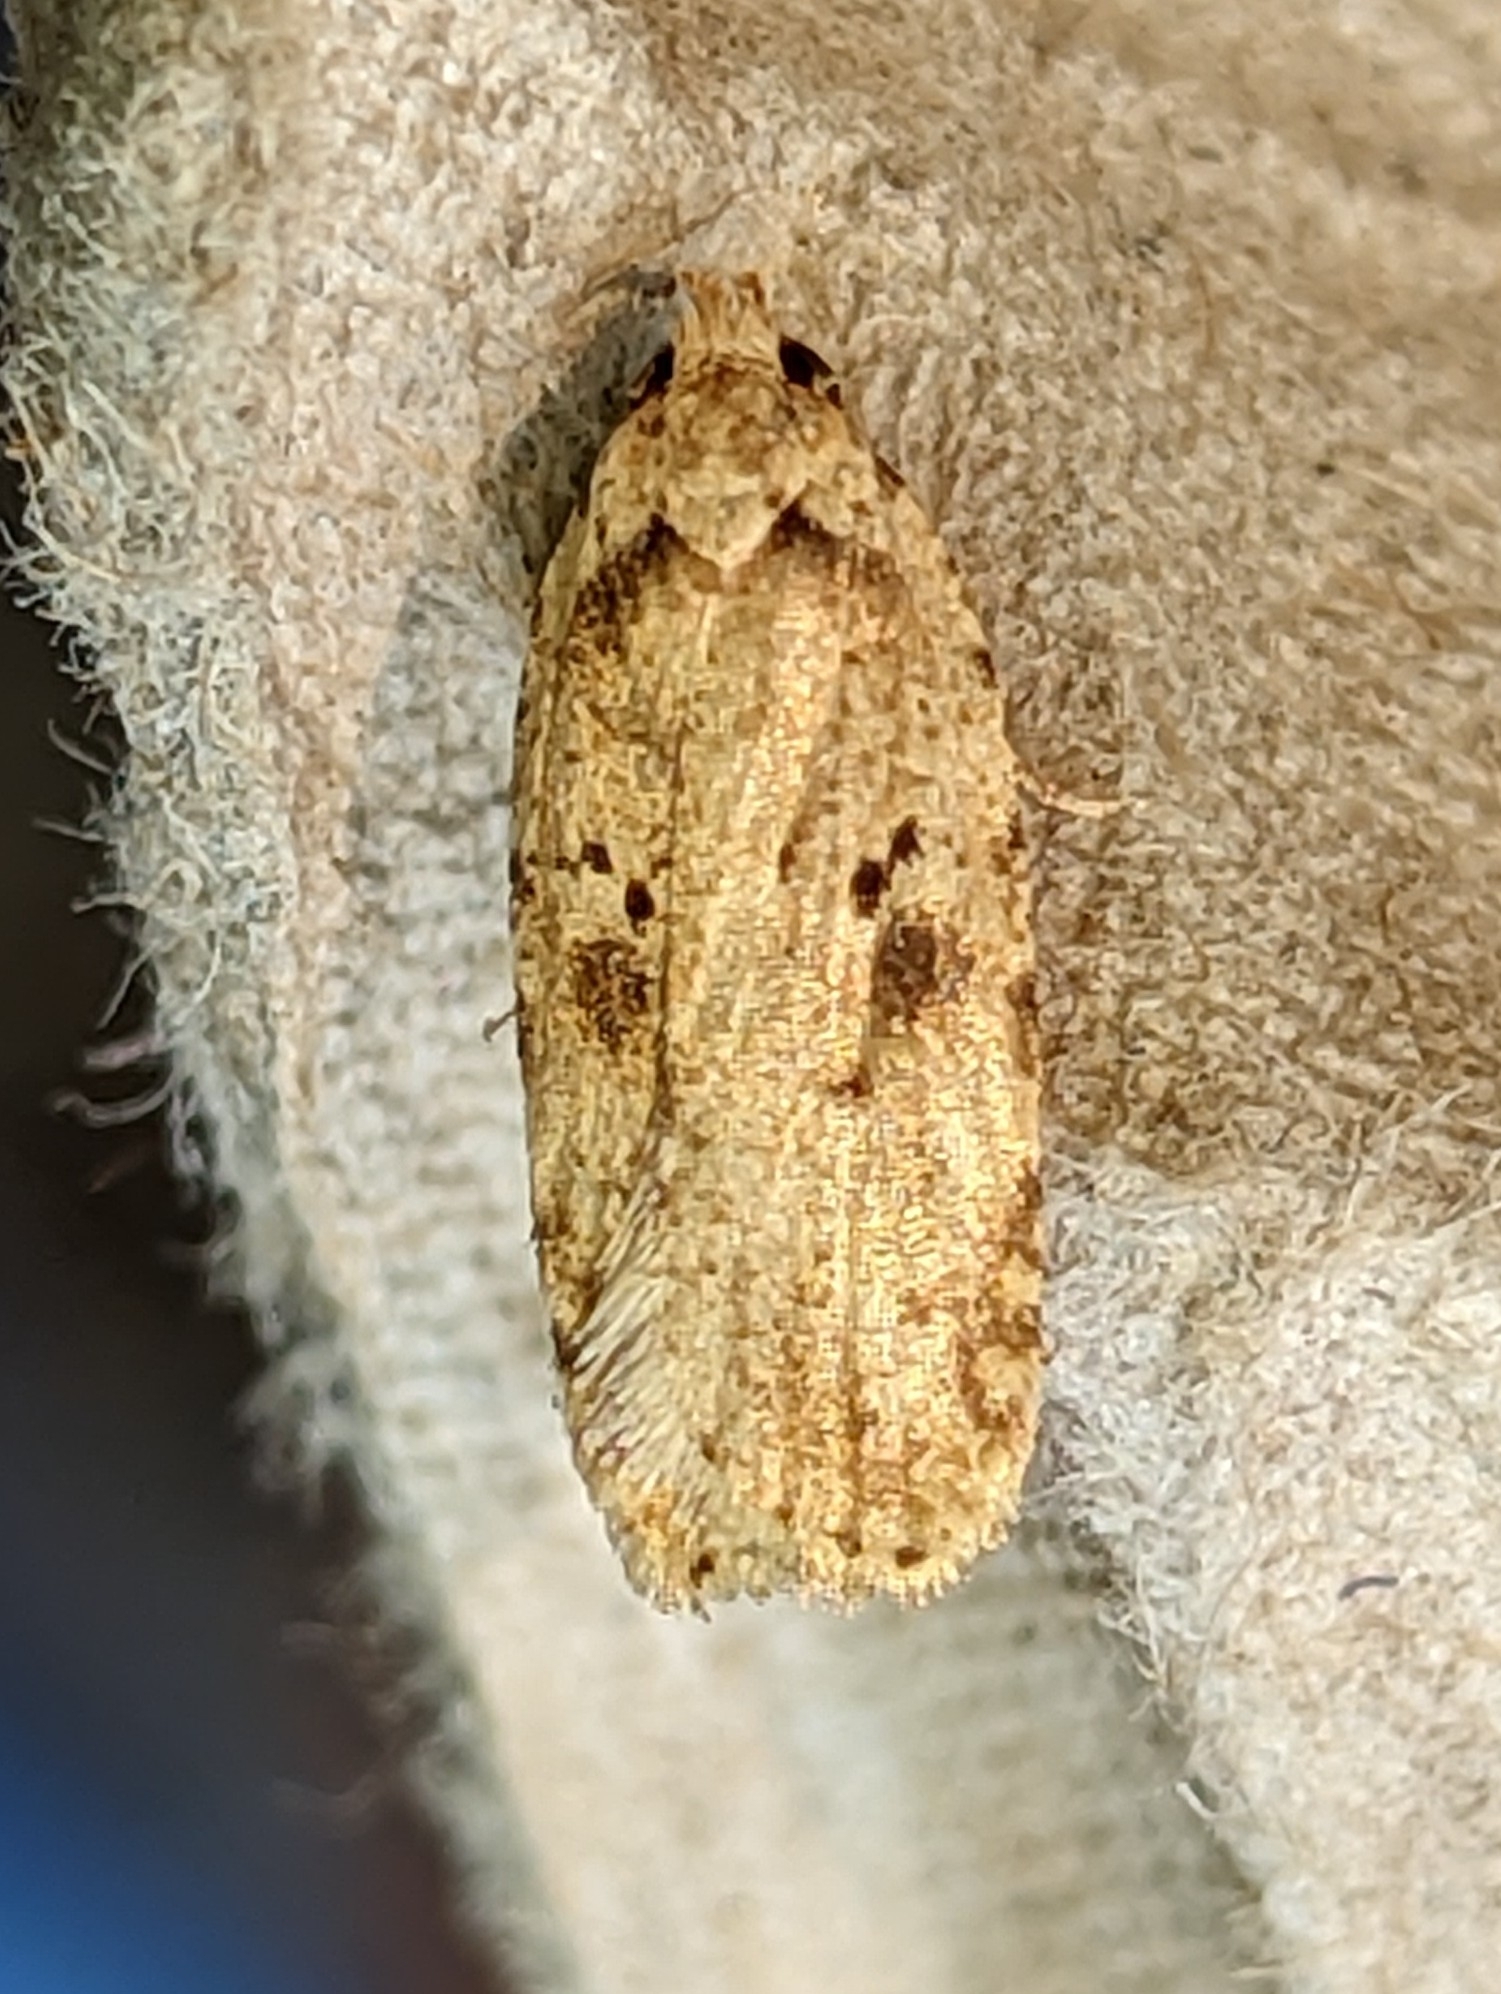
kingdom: Animalia
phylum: Arthropoda
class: Insecta
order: Lepidoptera
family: Depressariidae
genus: Agonopterix
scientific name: Agonopterix arenella
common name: Brindled flat-body
